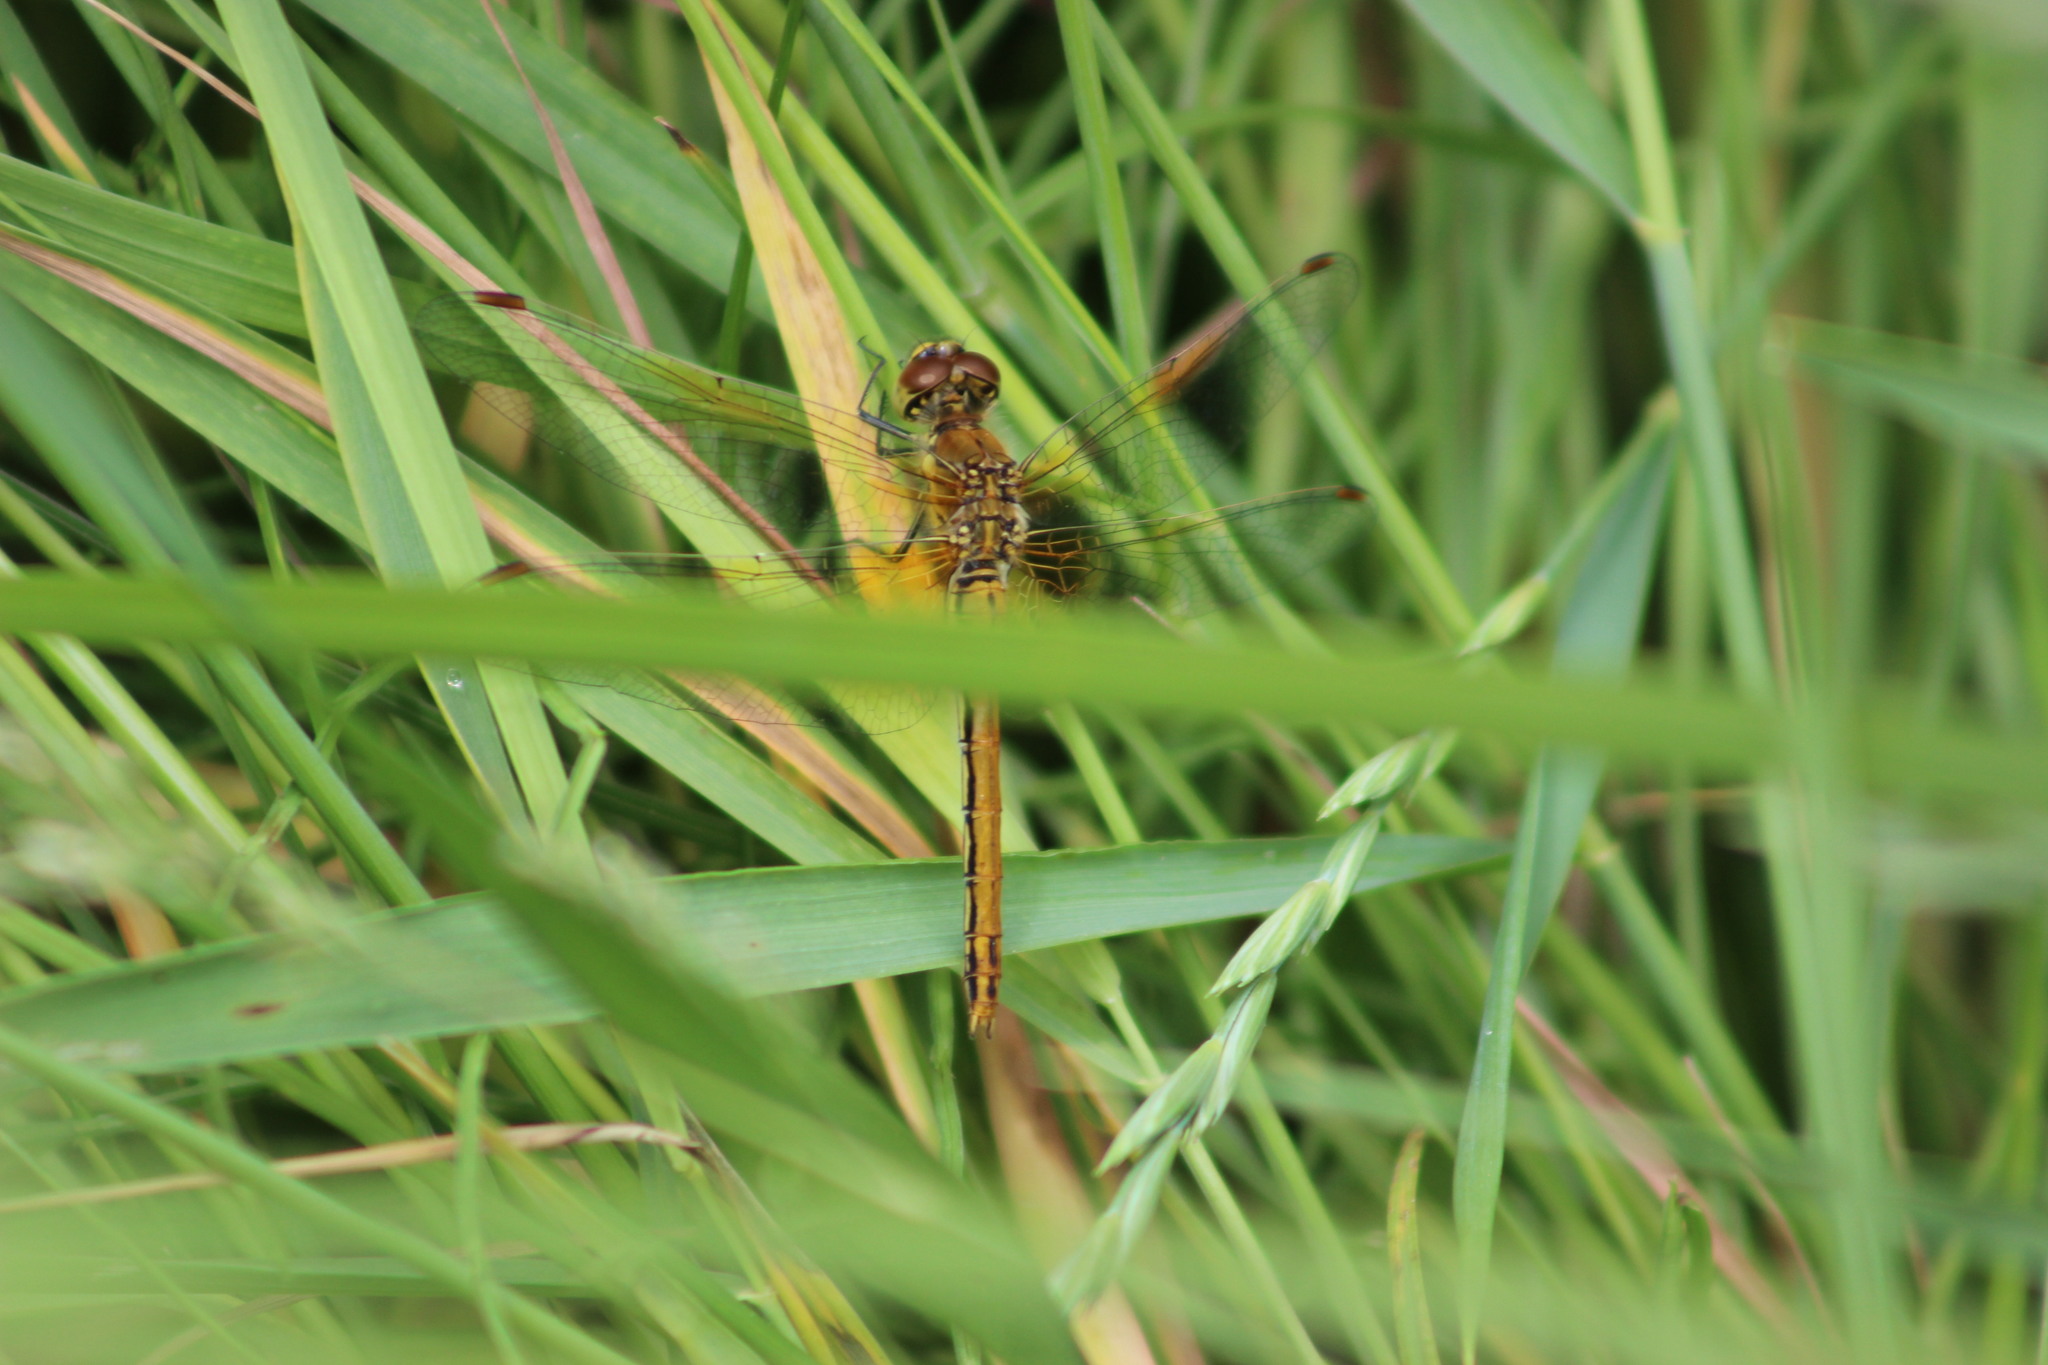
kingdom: Animalia
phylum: Arthropoda
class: Insecta
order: Odonata
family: Libellulidae
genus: Sympetrum
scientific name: Sympetrum flaveolum
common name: Yellow-winged darter
